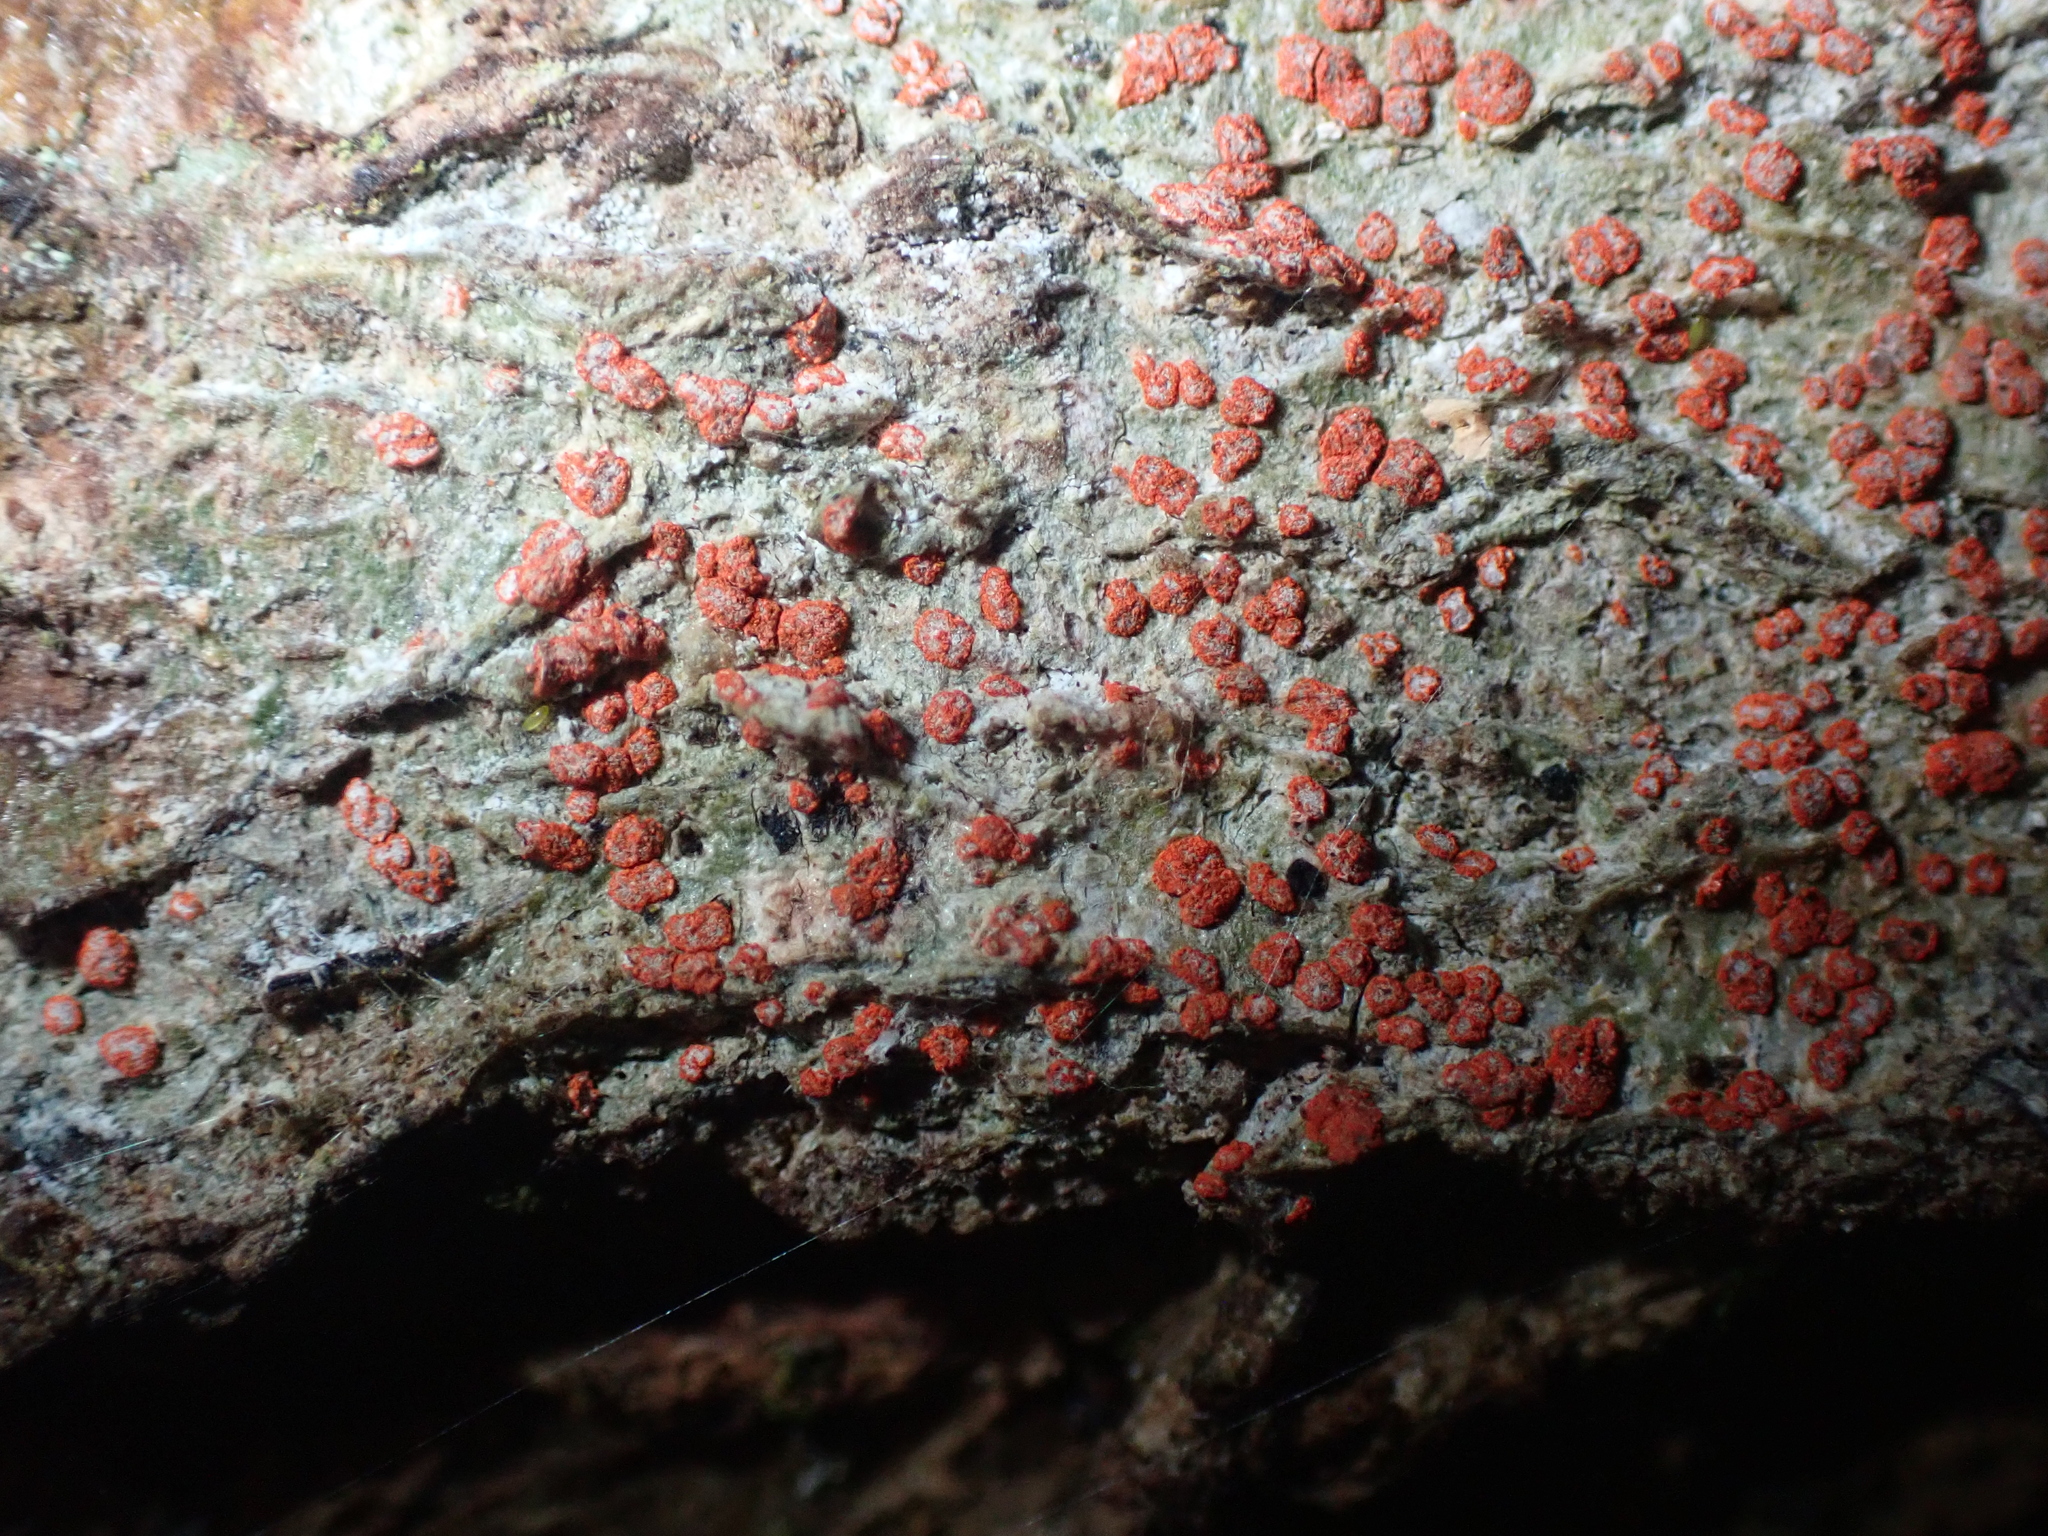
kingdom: Fungi
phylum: Ascomycota
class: Arthoniomycetes
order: Arthoniales
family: Arthoniaceae
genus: Coniocarpon
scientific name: Coniocarpon cinnabarinum
